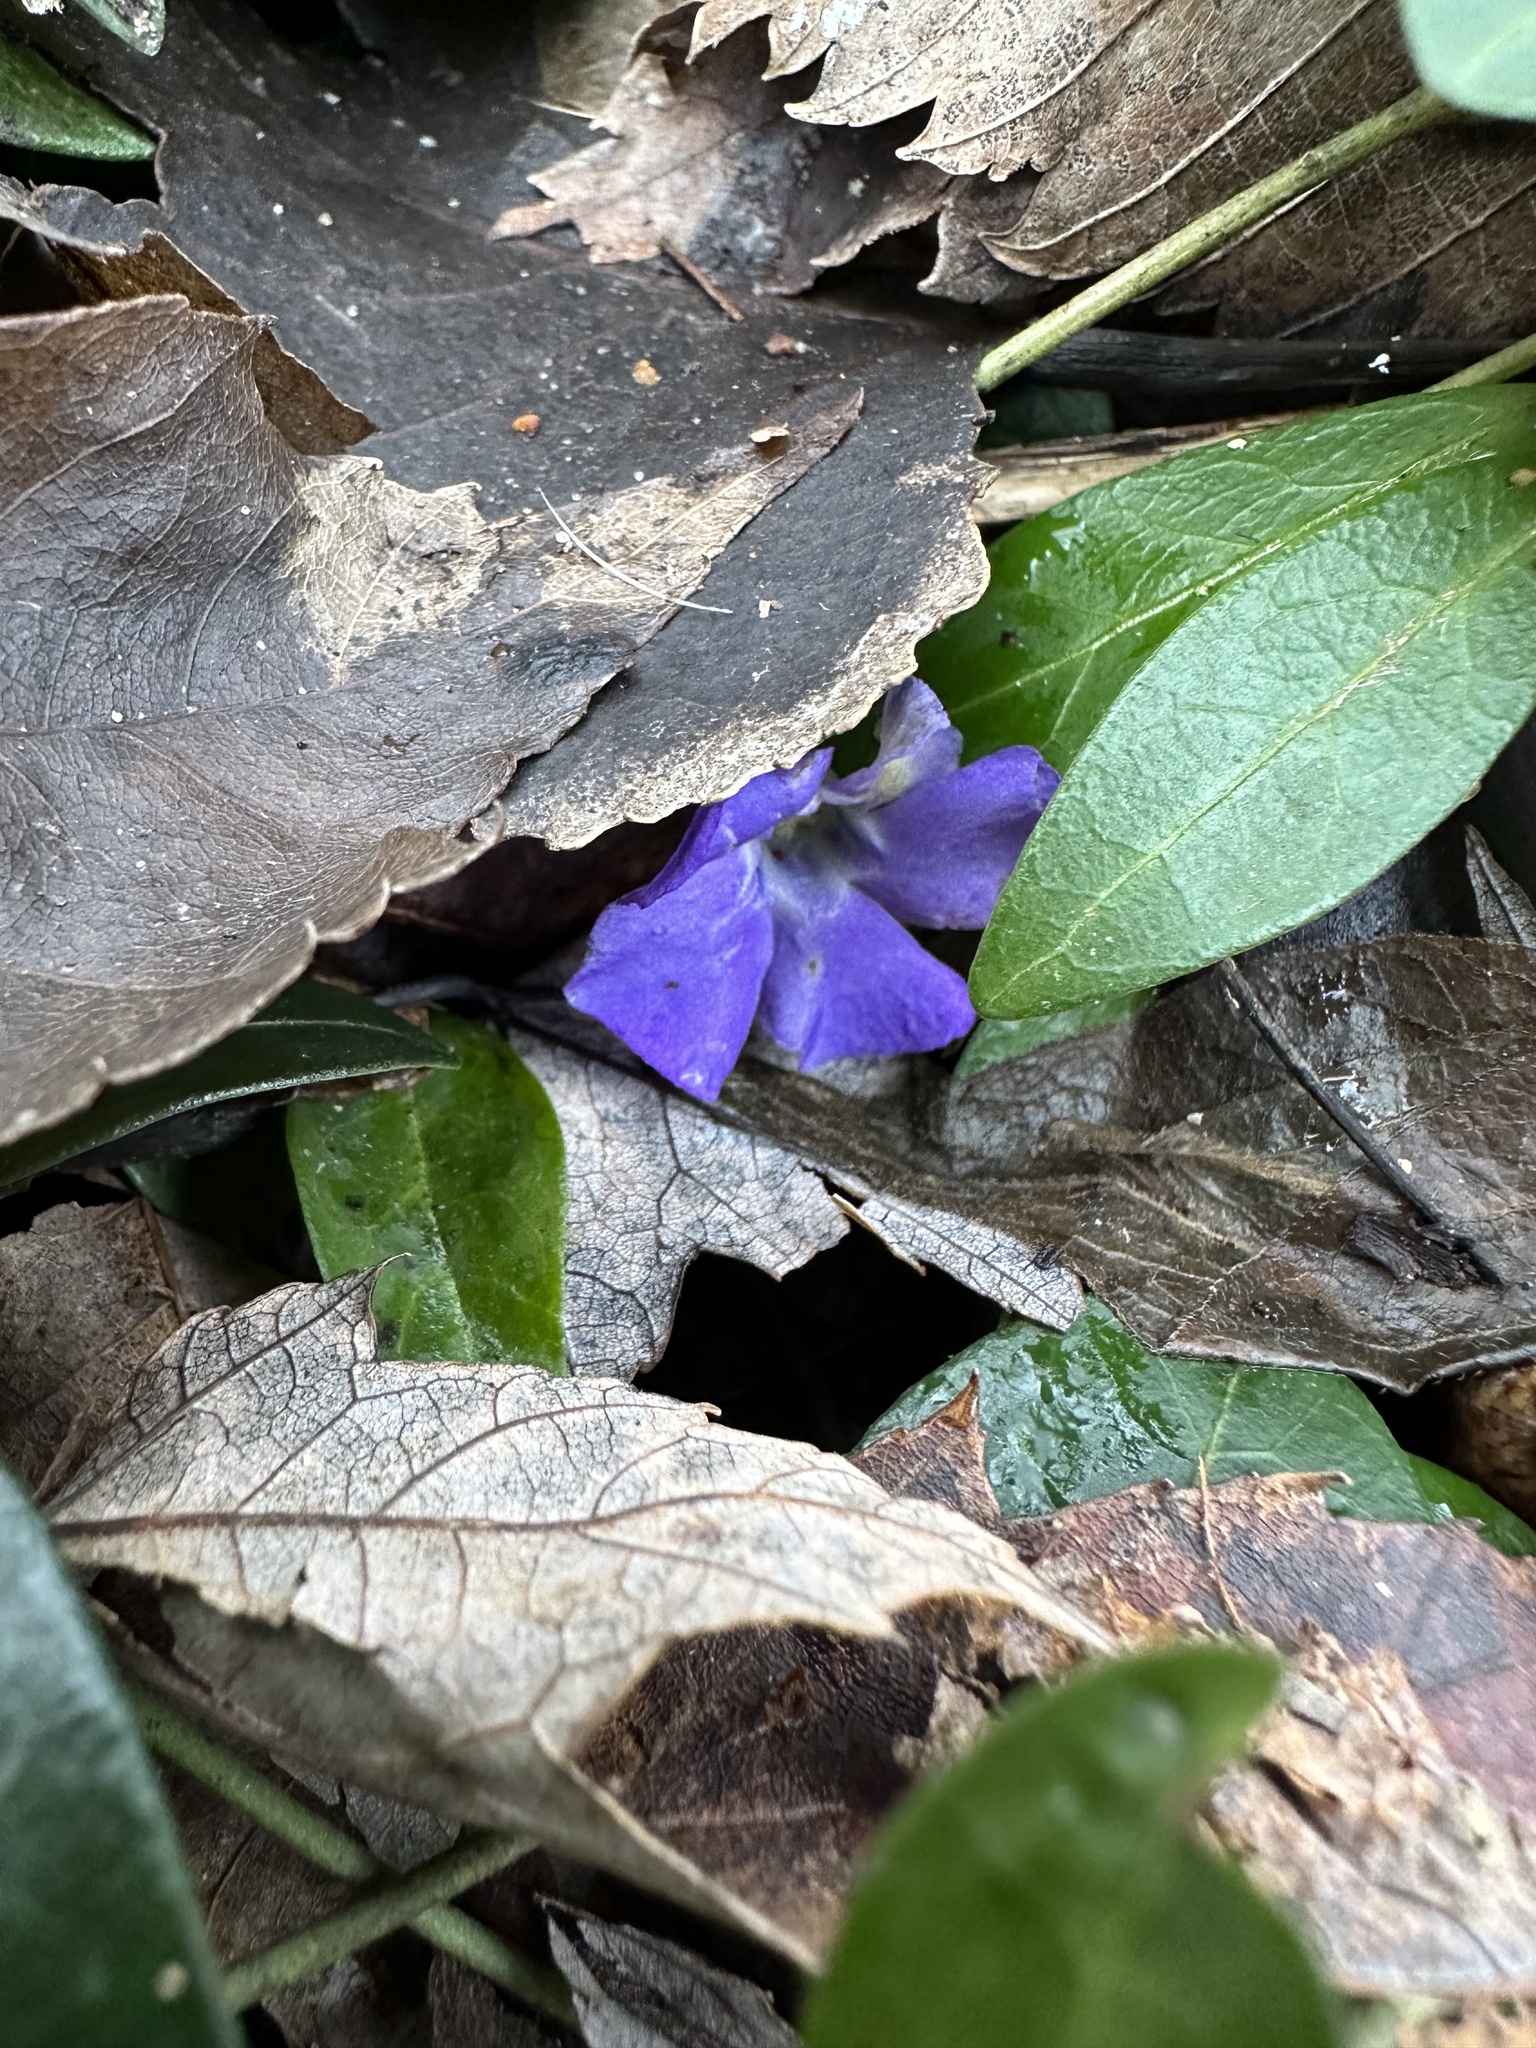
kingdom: Plantae
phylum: Tracheophyta
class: Magnoliopsida
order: Gentianales
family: Apocynaceae
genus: Vinca
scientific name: Vinca minor
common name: Lesser periwinkle
